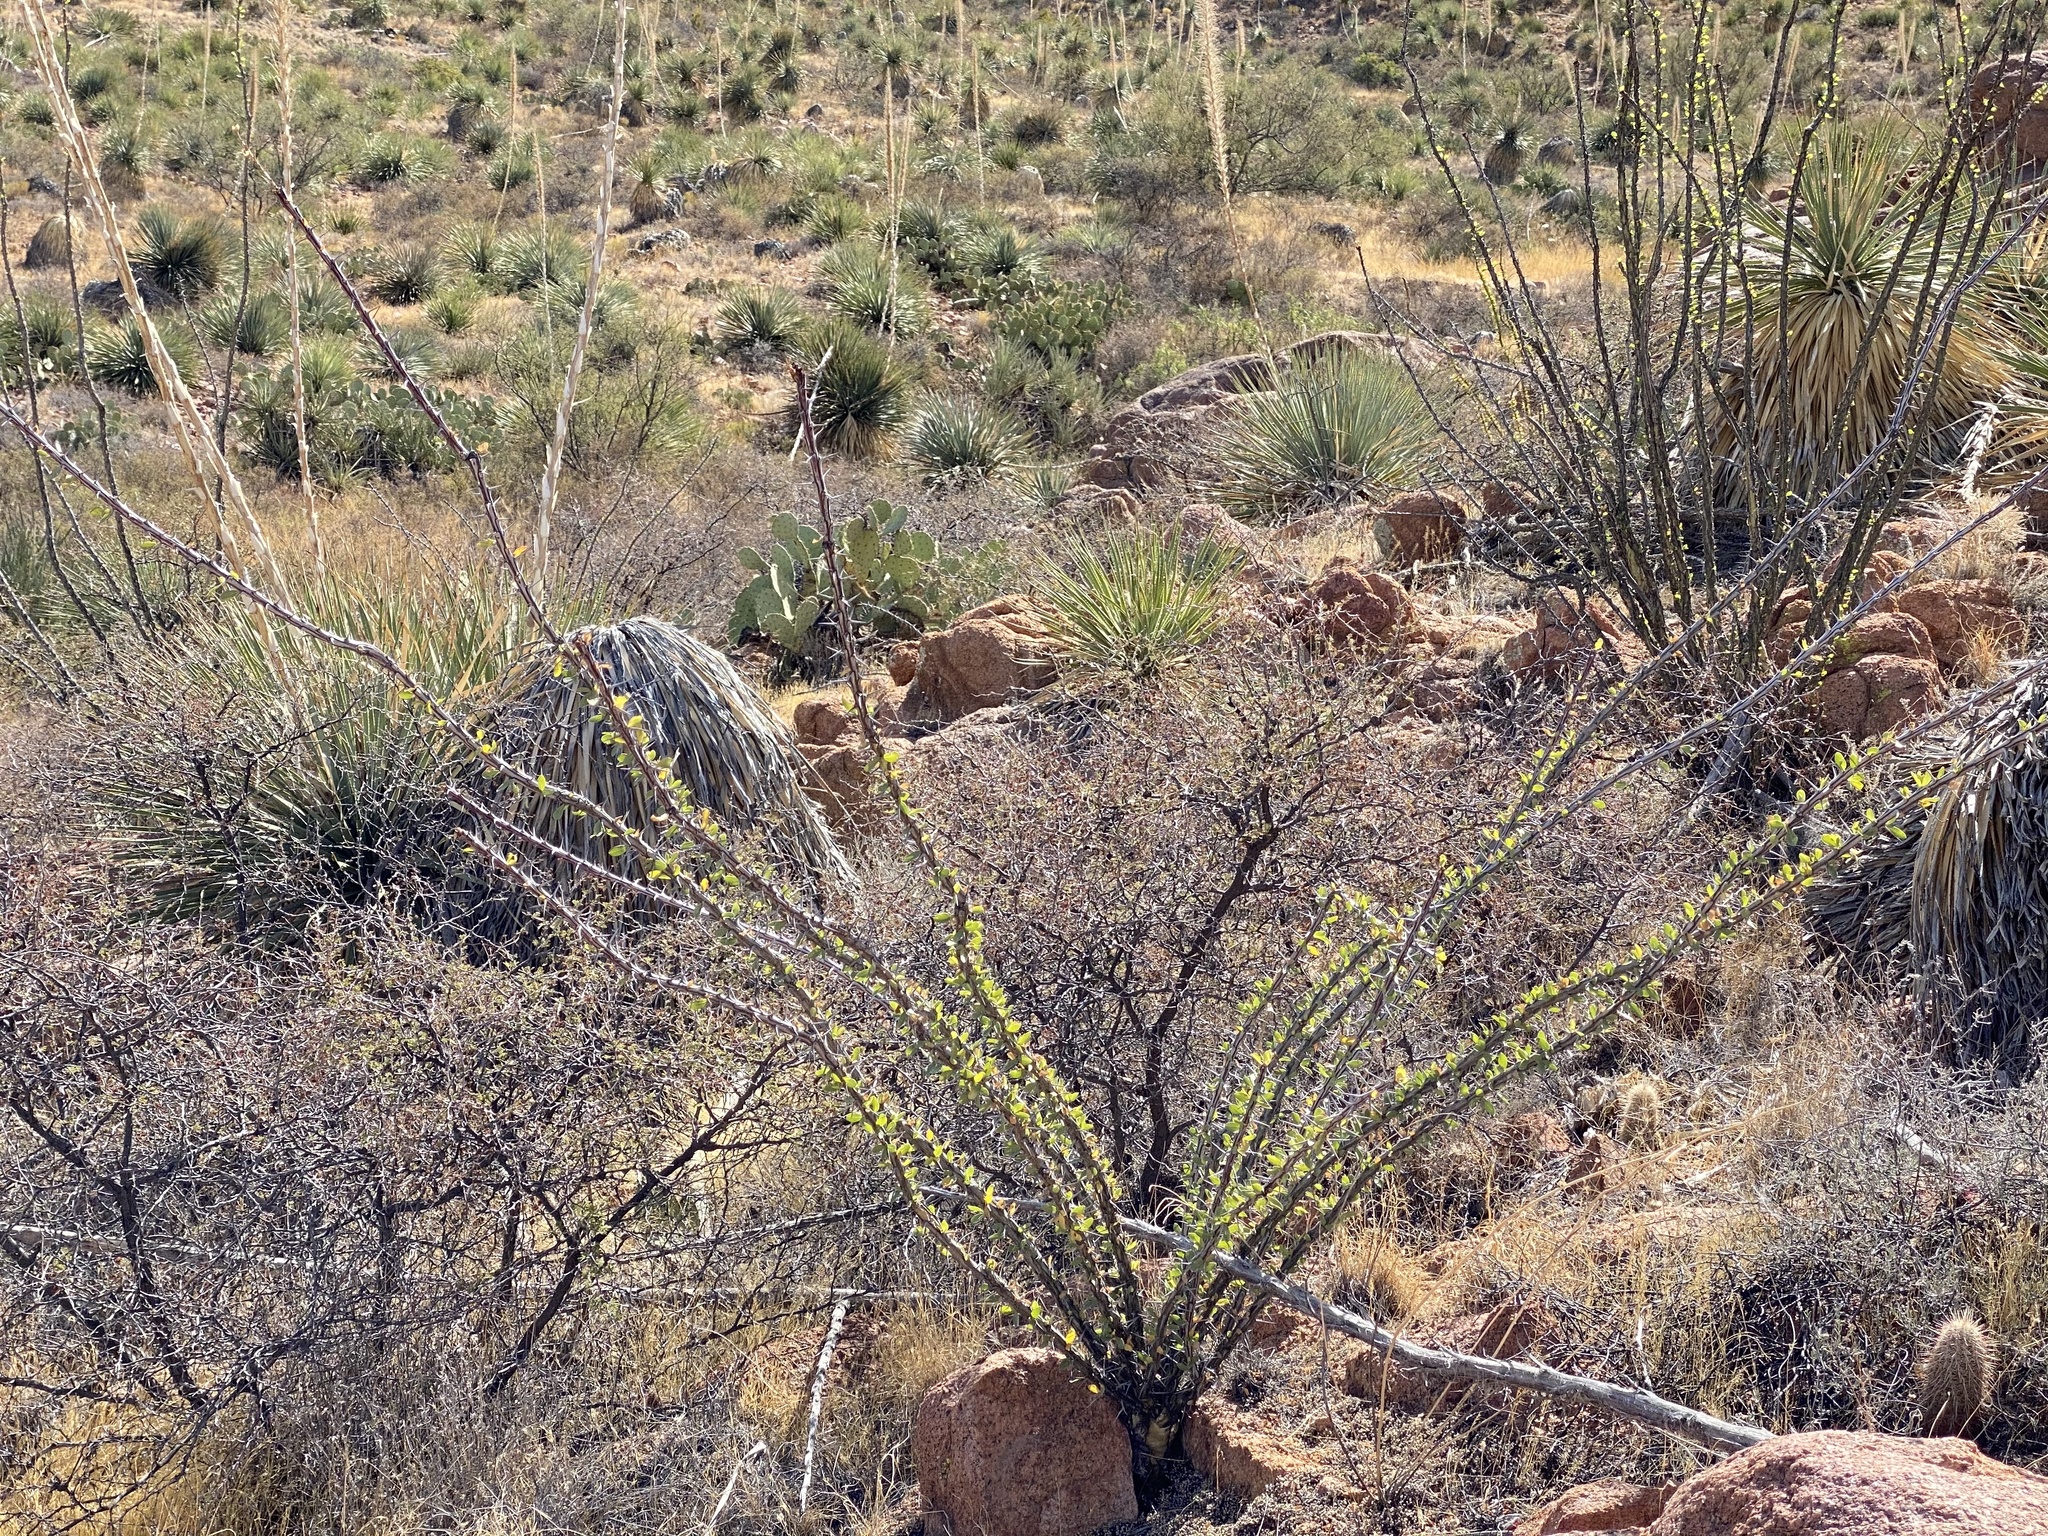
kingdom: Plantae
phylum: Tracheophyta
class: Magnoliopsida
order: Ericales
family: Fouquieriaceae
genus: Fouquieria
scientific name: Fouquieria splendens
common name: Vine-cactus
